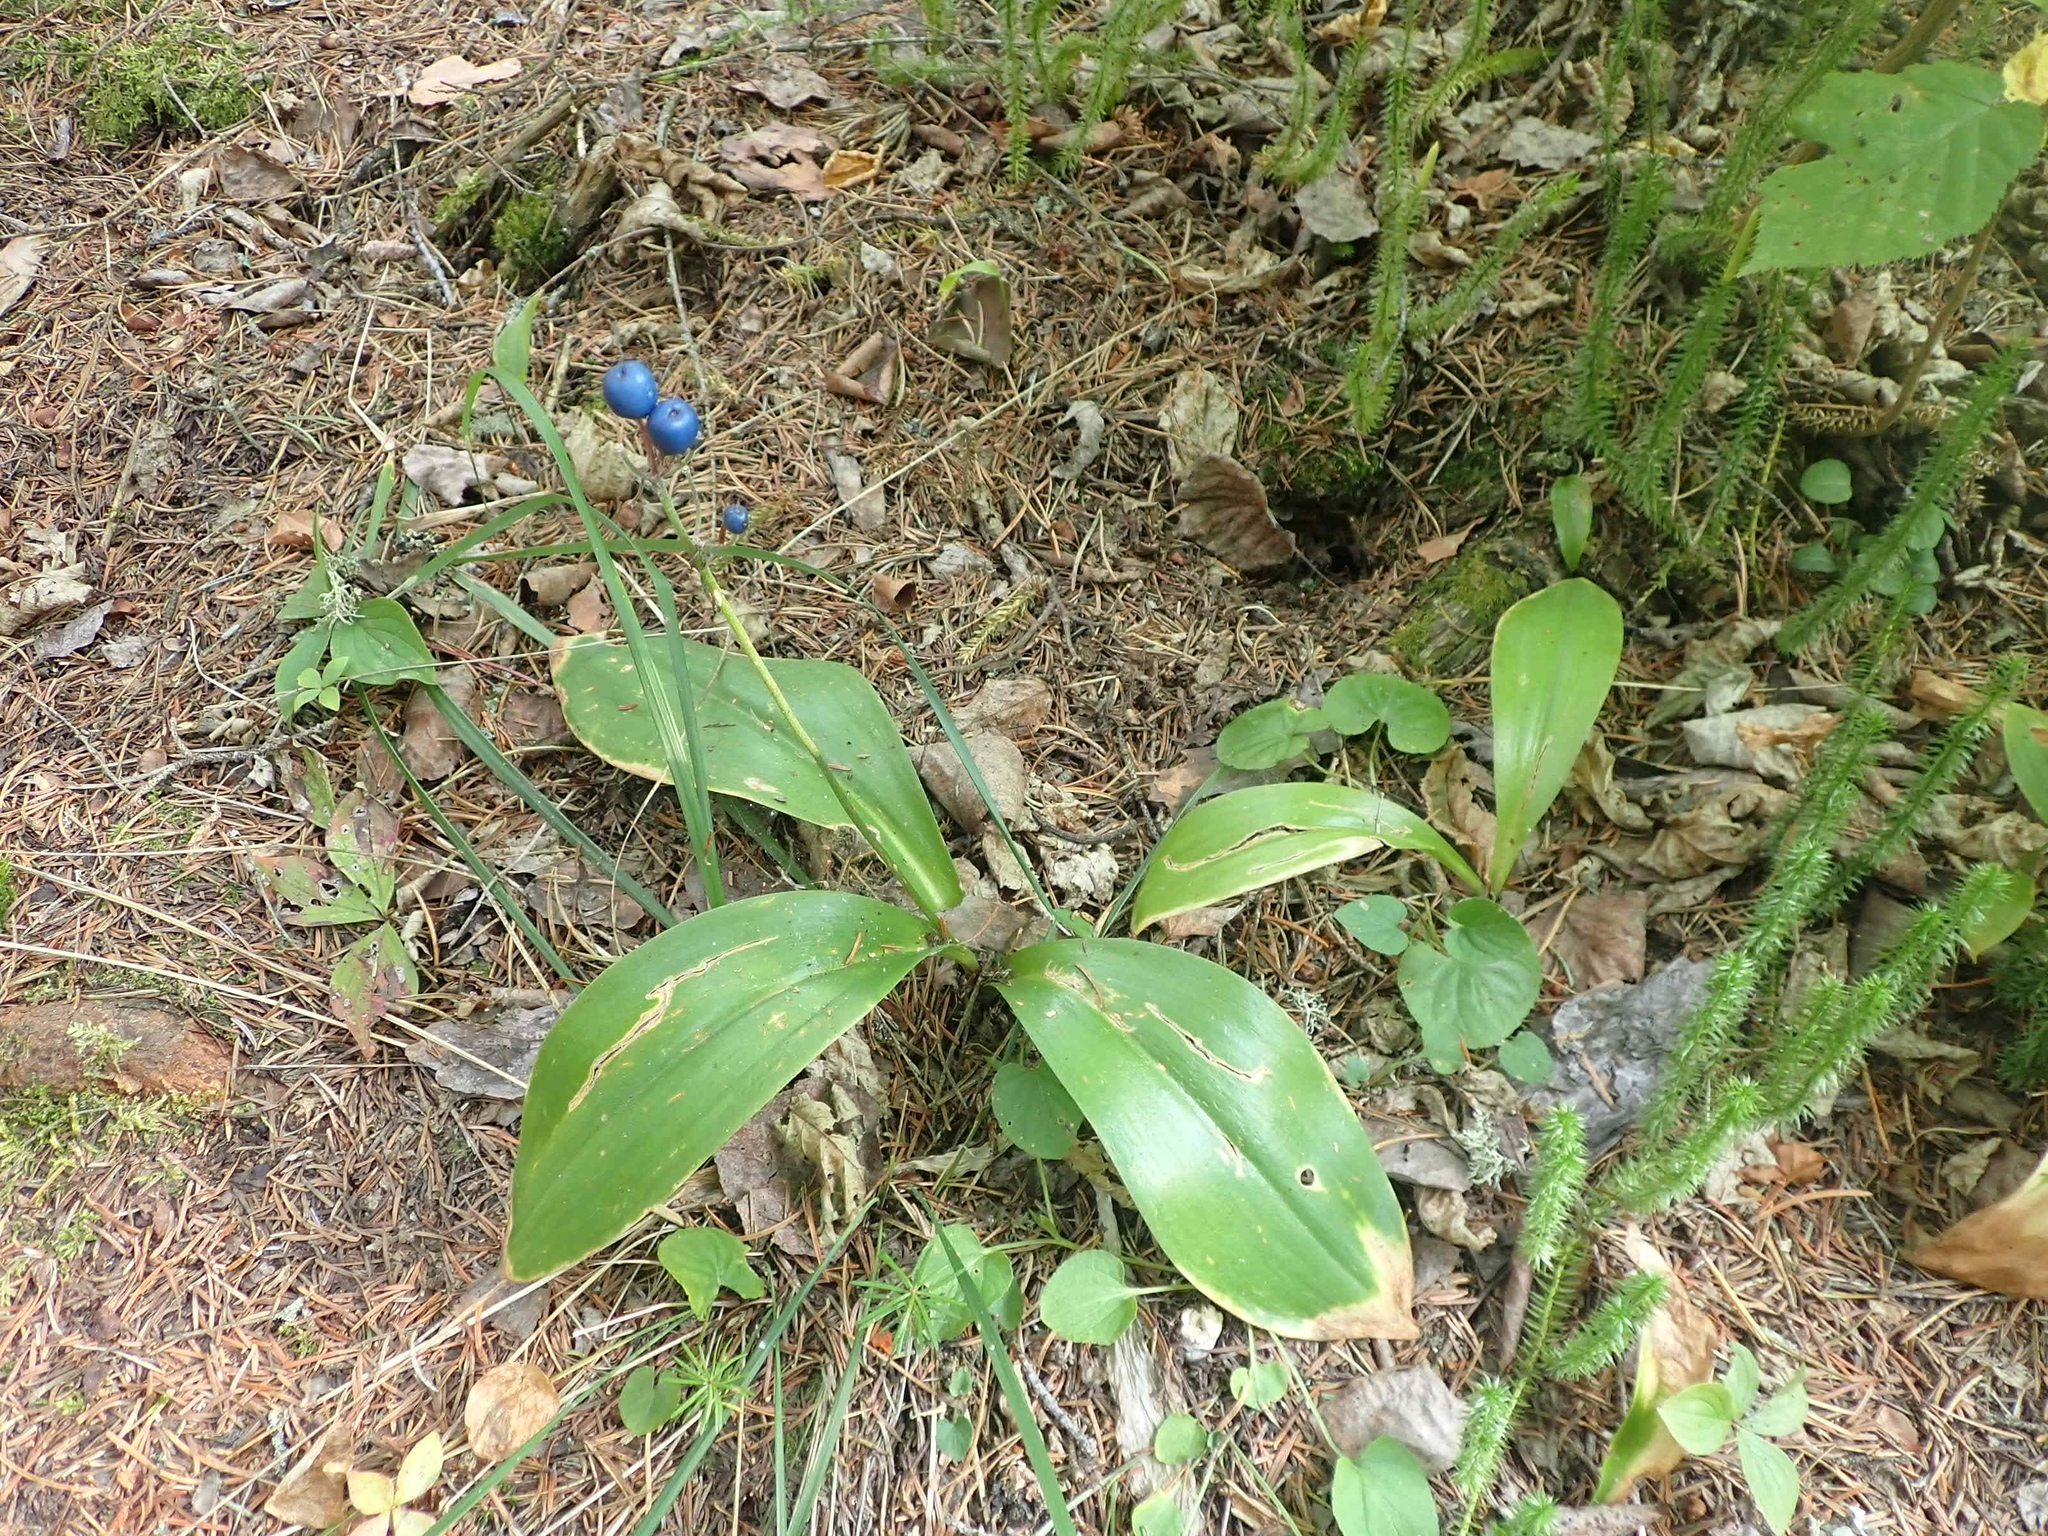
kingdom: Plantae
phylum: Tracheophyta
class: Liliopsida
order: Liliales
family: Liliaceae
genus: Clintonia
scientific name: Clintonia borealis
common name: Yellow clintonia
